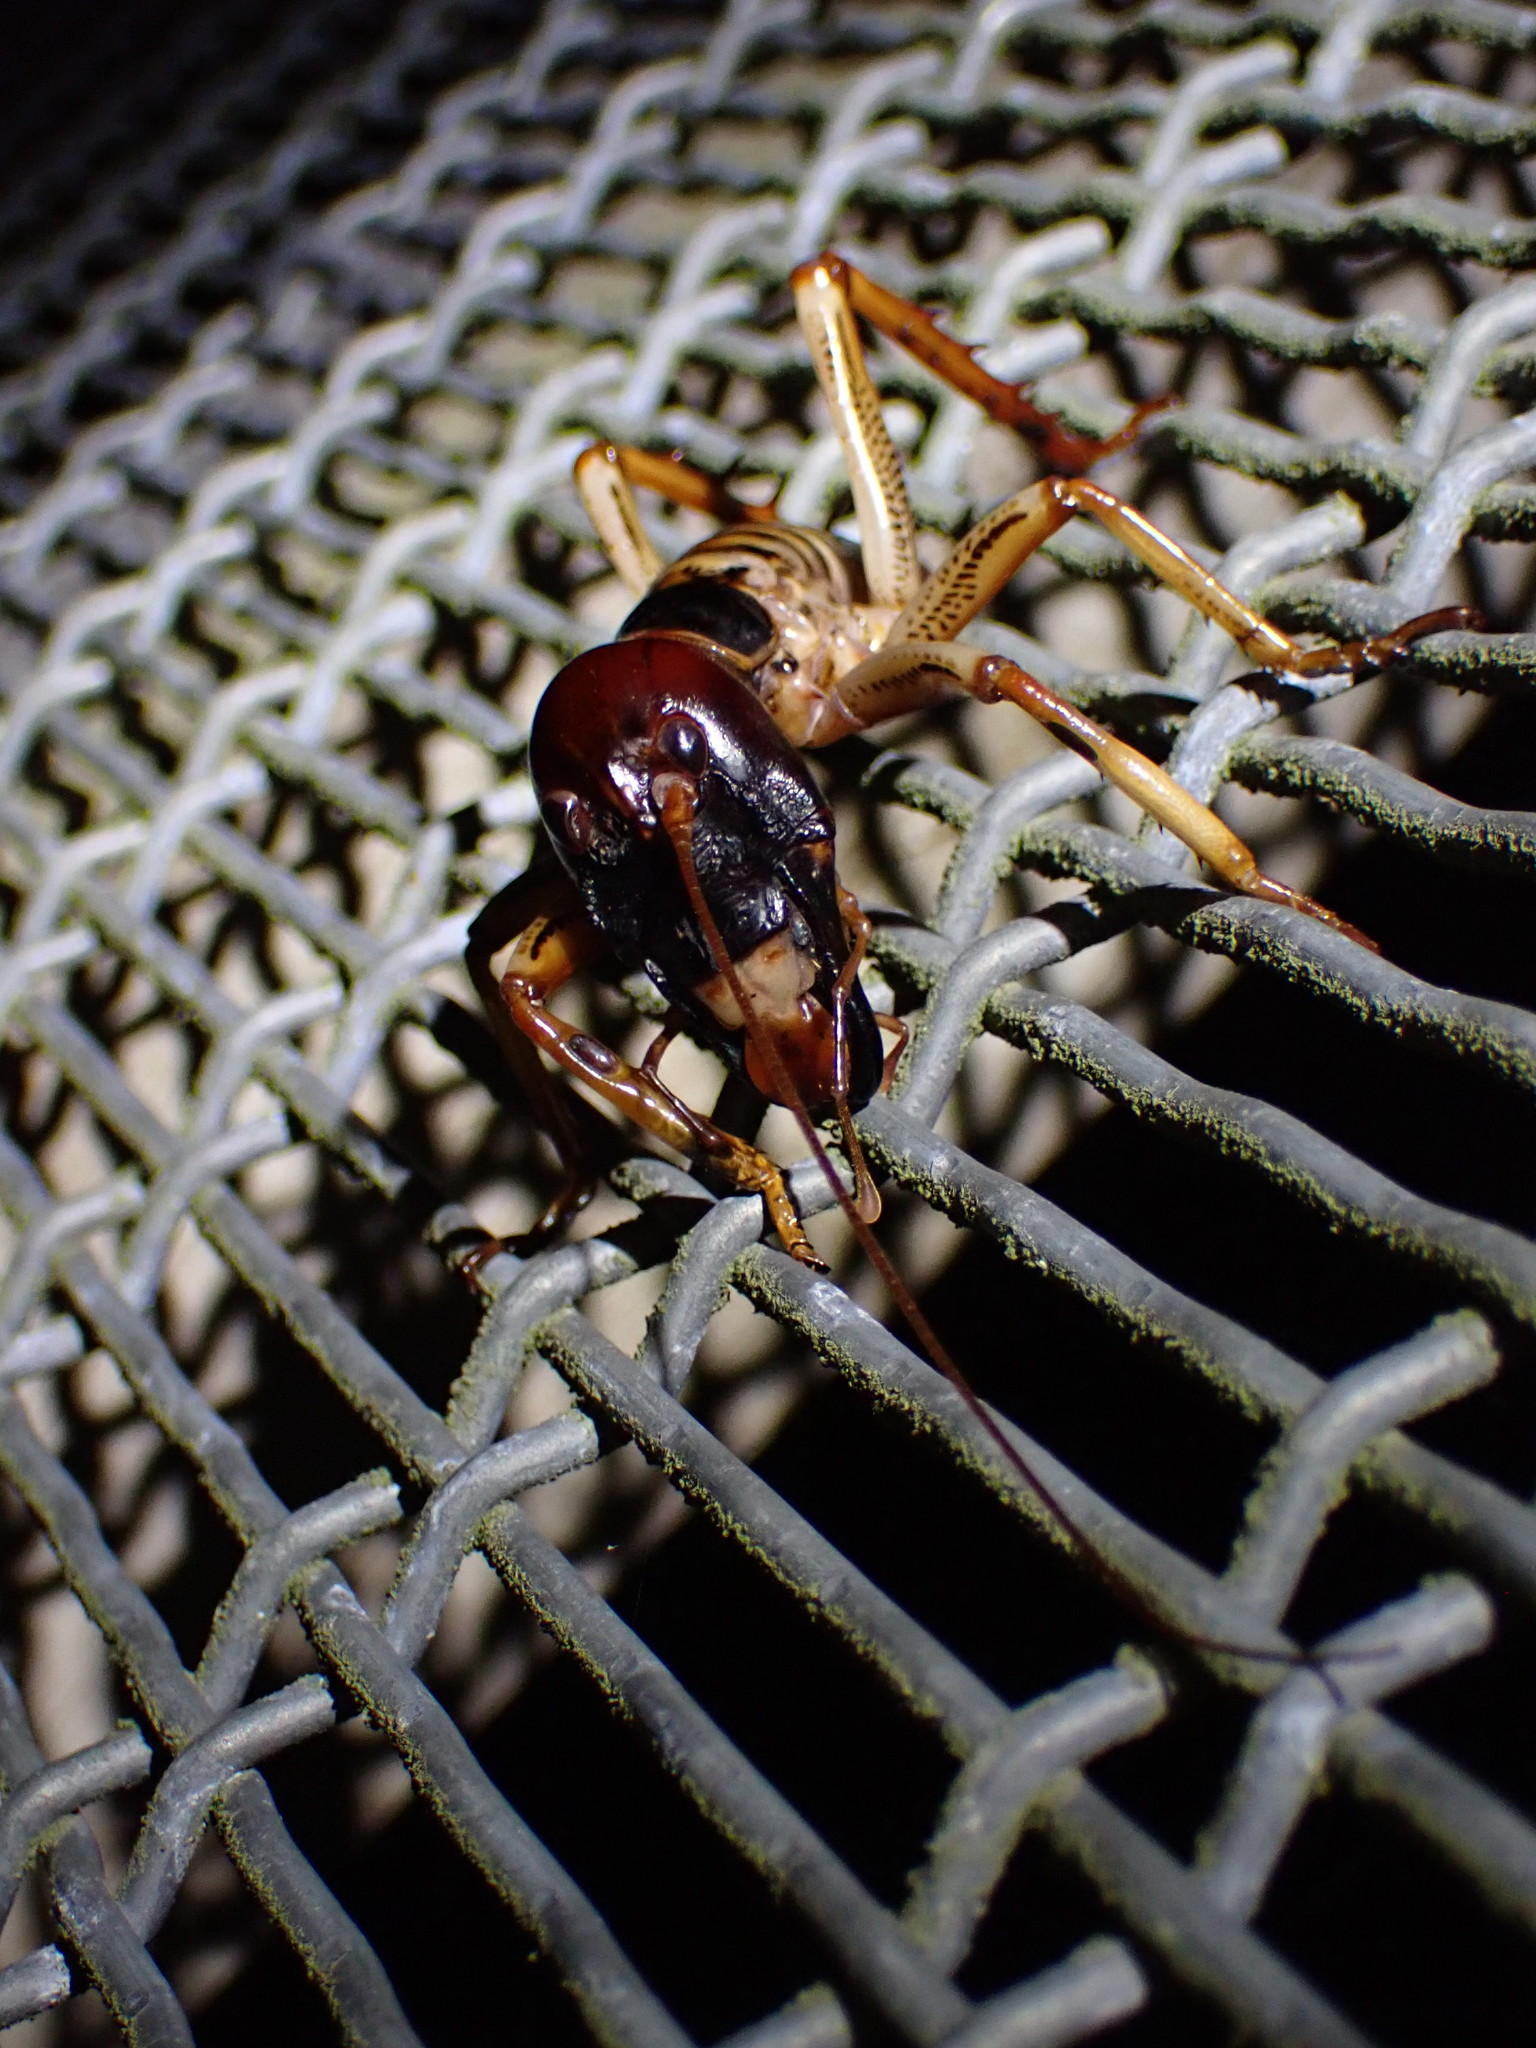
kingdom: Animalia
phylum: Arthropoda
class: Insecta
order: Orthoptera
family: Anostostomatidae
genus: Hemideina
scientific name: Hemideina crassidens
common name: Wellington tree weta
